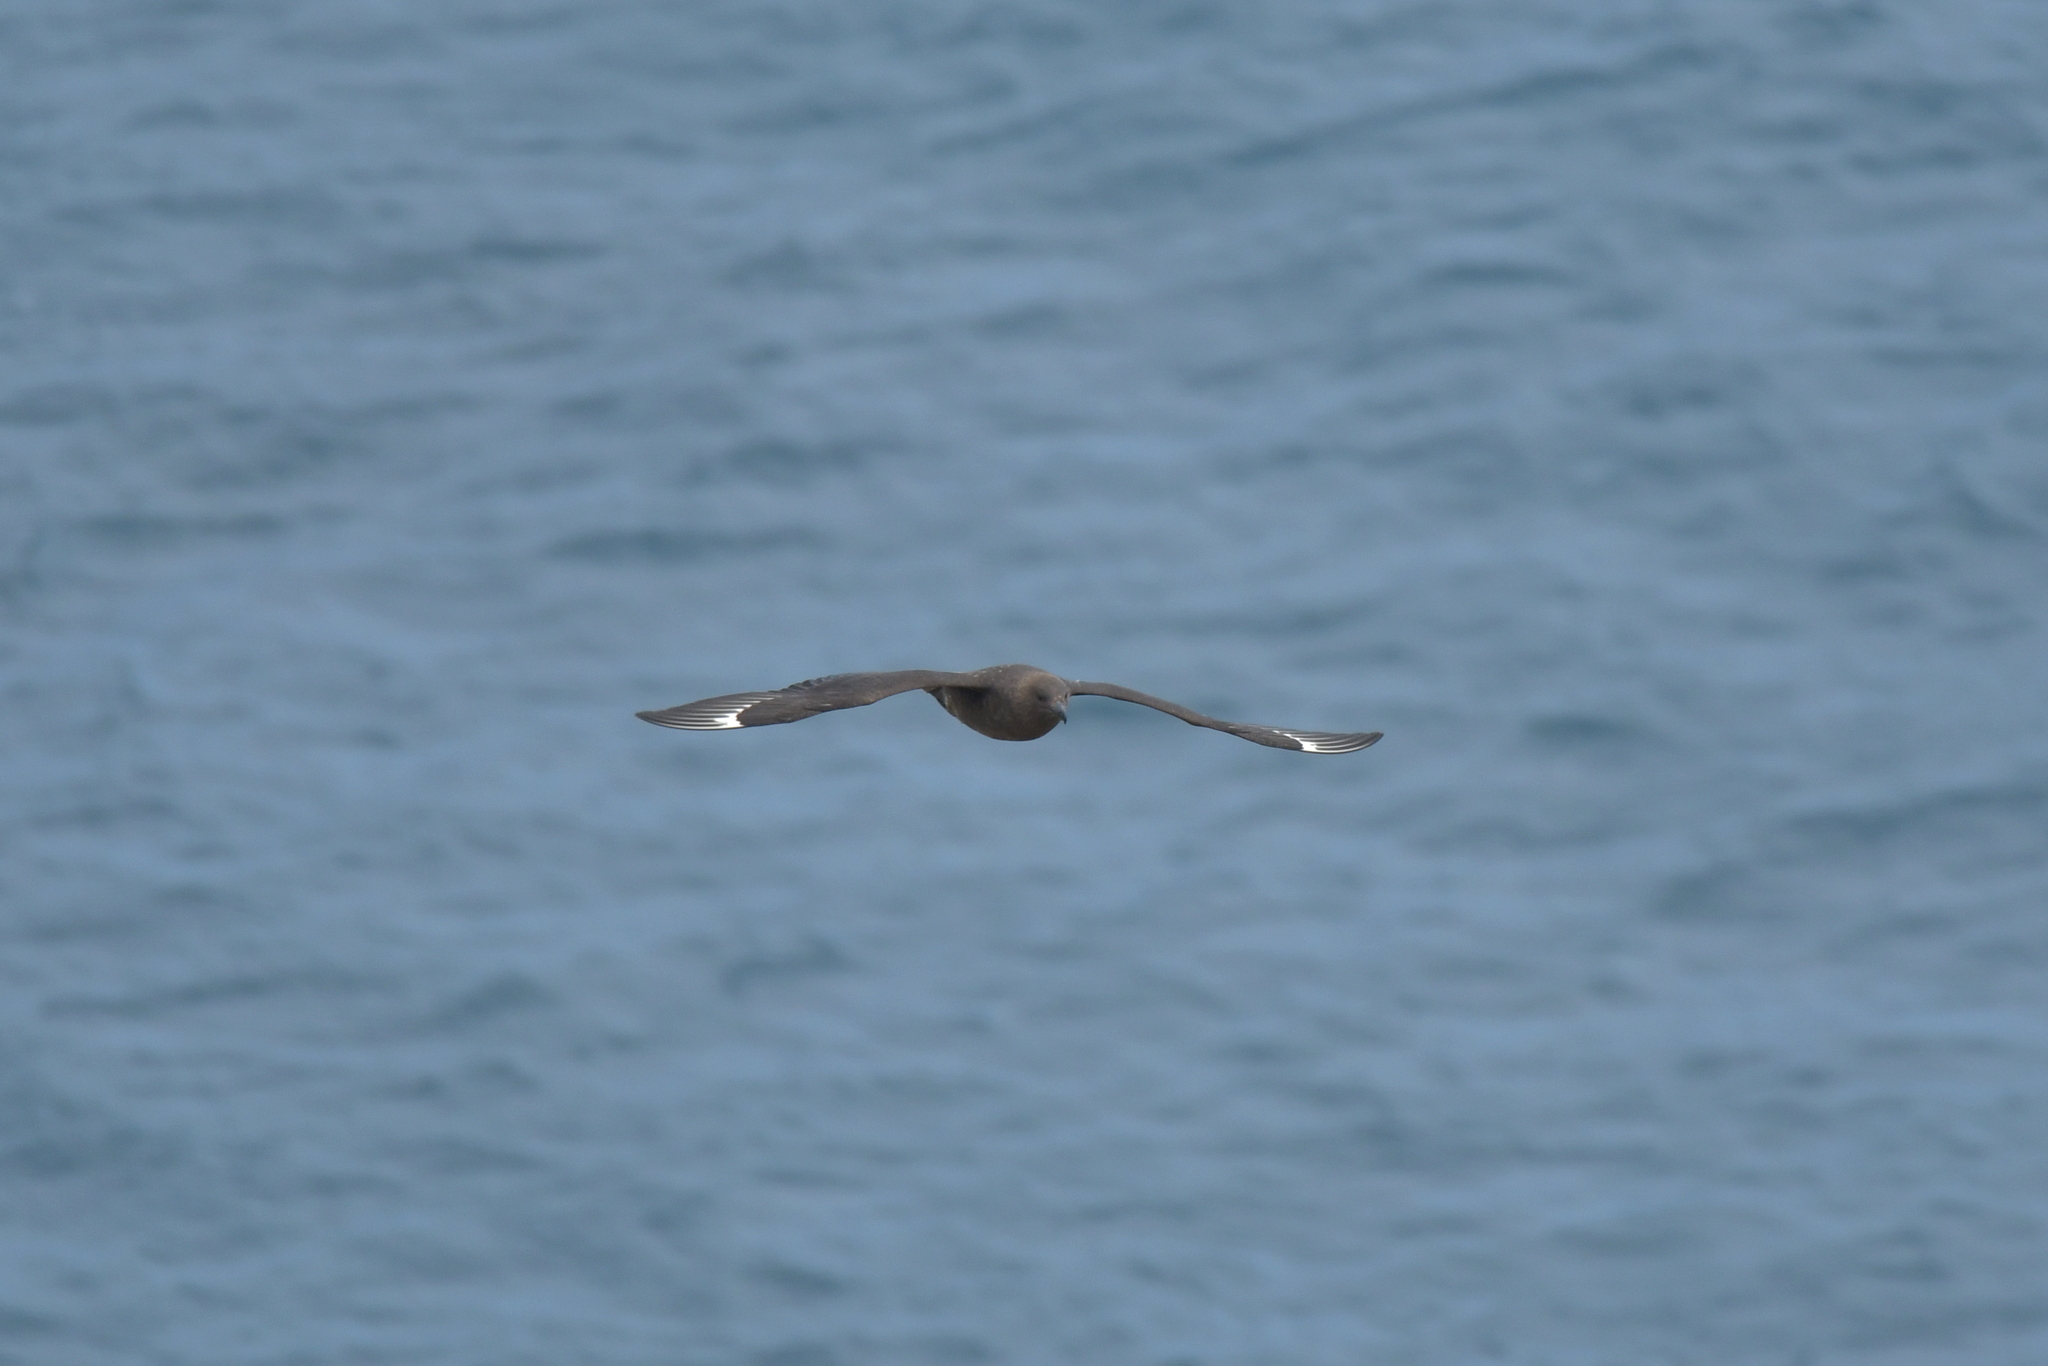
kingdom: Animalia
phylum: Chordata
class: Aves
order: Charadriiformes
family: Stercorariidae
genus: Stercorarius
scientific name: Stercorarius antarcticus
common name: Brown skua
